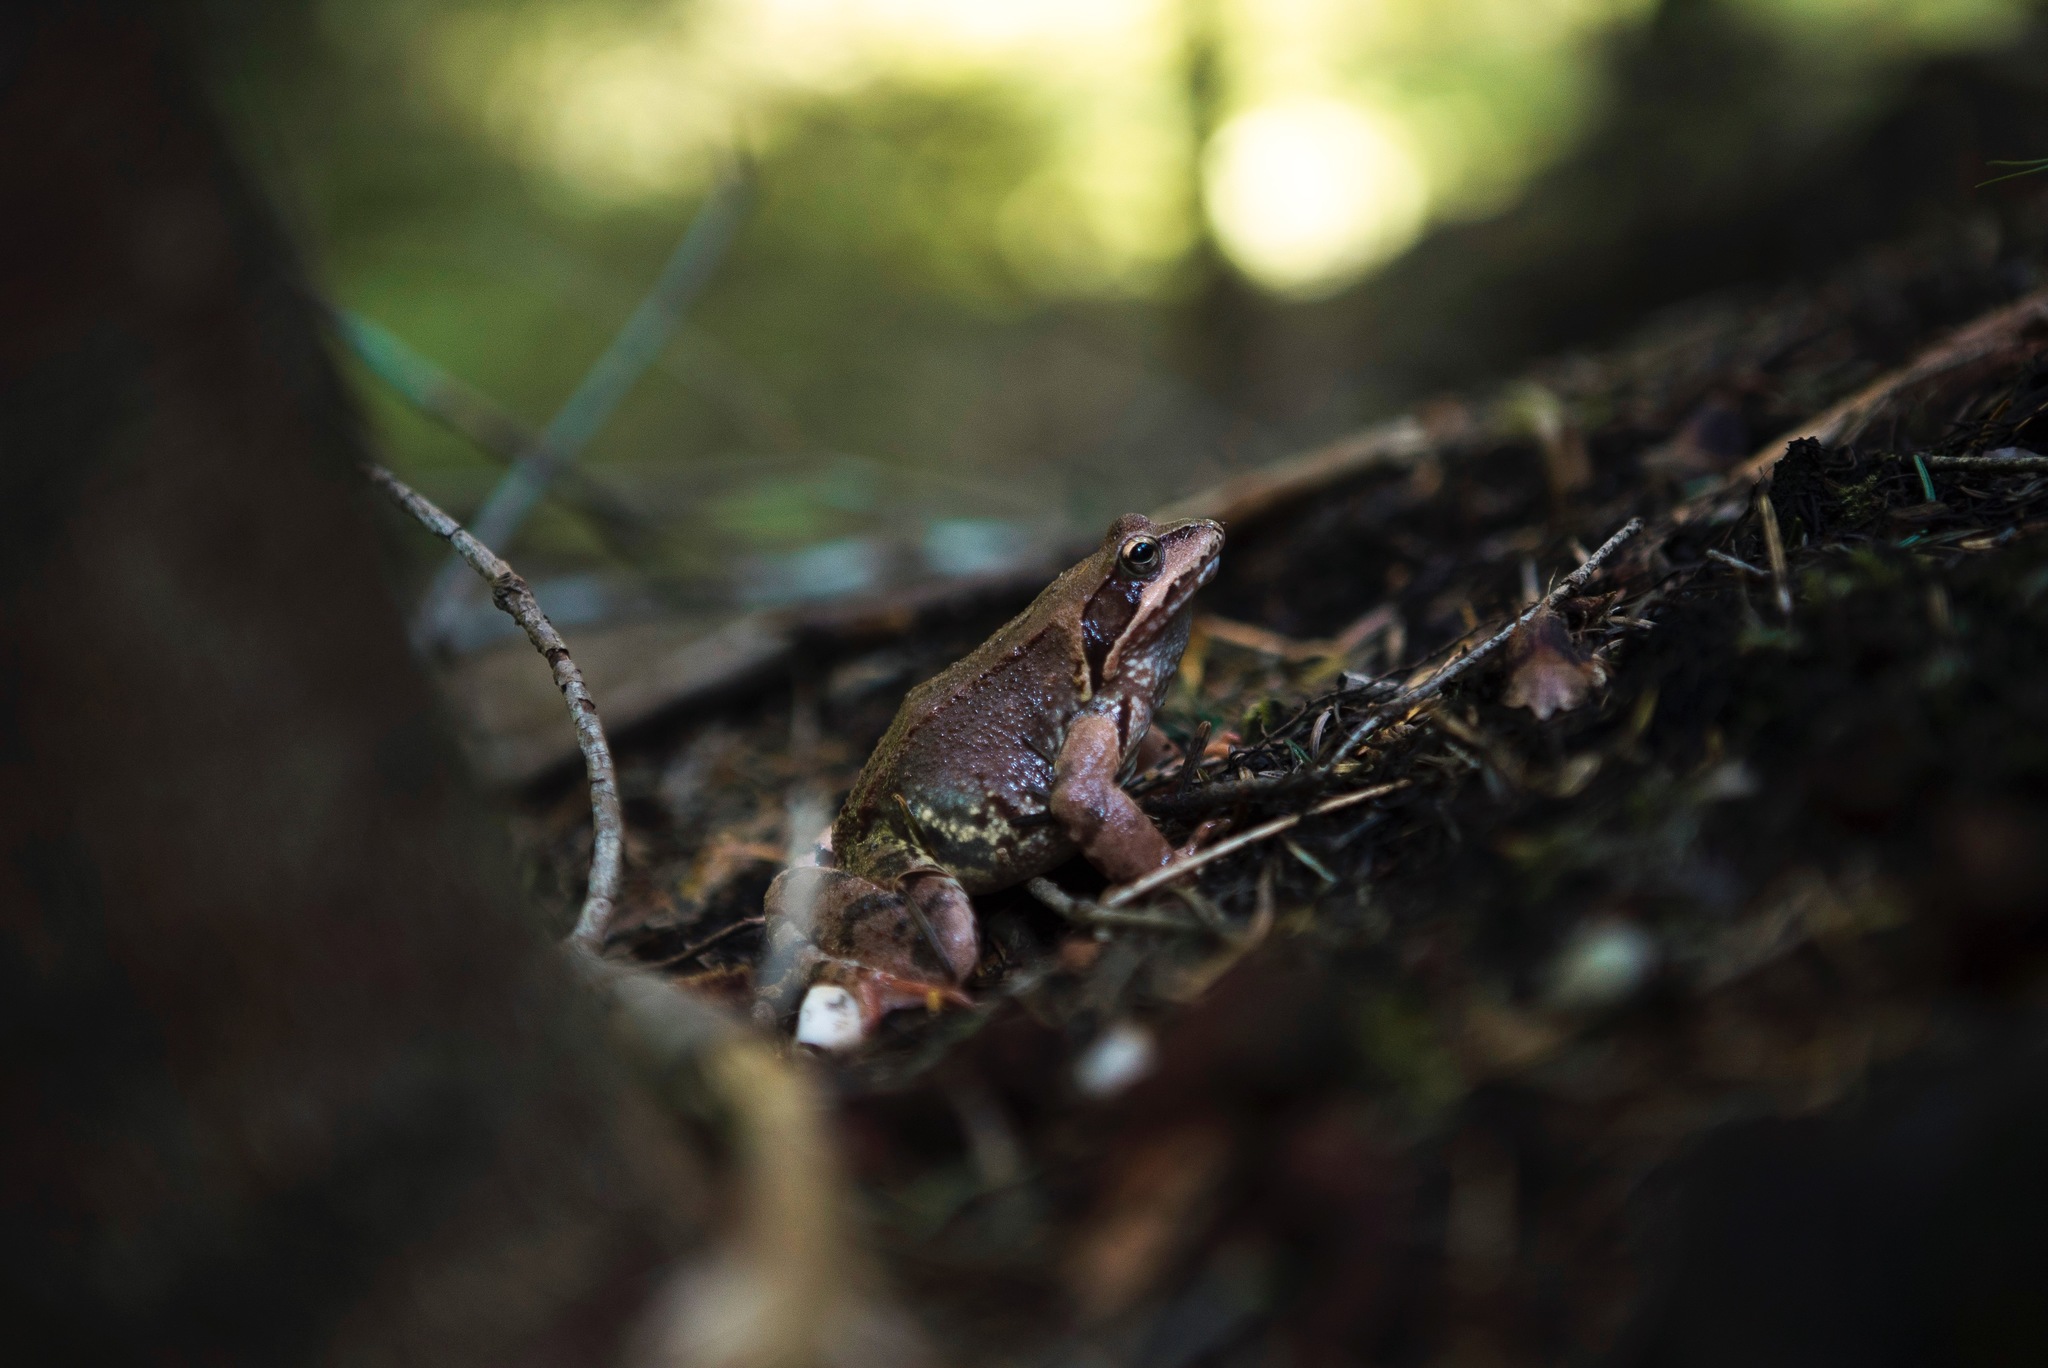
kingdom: Animalia
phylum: Chordata
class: Amphibia
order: Anura
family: Ranidae
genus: Rana
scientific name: Rana temporaria
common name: Common frog
